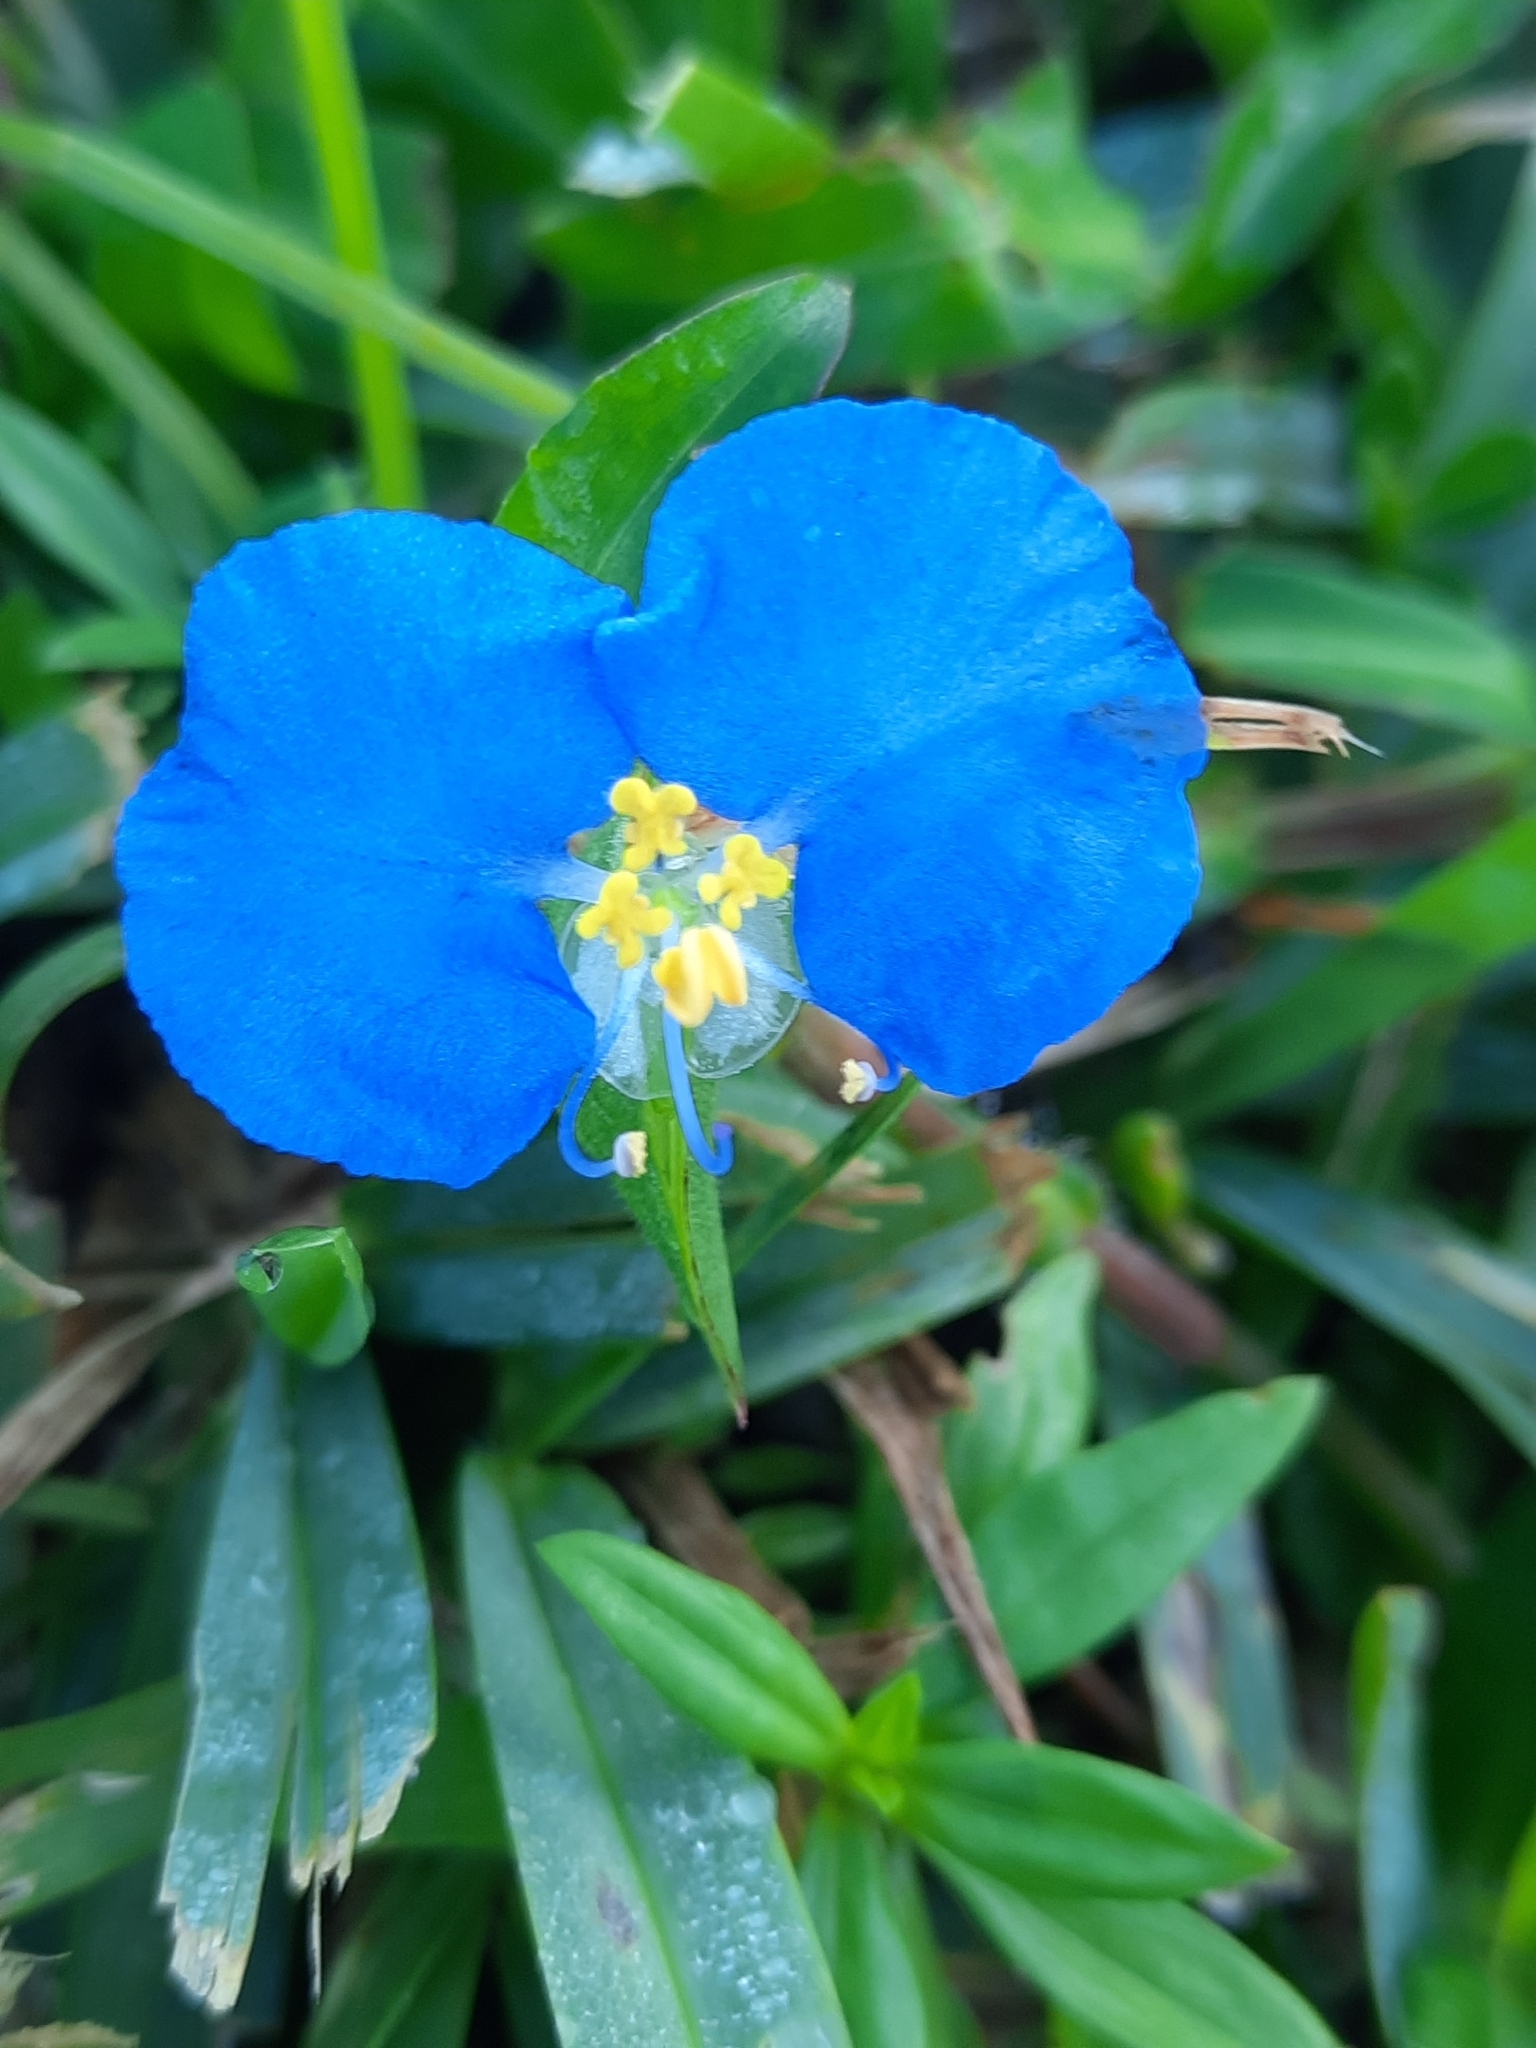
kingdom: Plantae
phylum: Tracheophyta
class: Liliopsida
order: Commelinales
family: Commelinaceae
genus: Commelina
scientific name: Commelina erecta
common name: Blousel blommetjie
